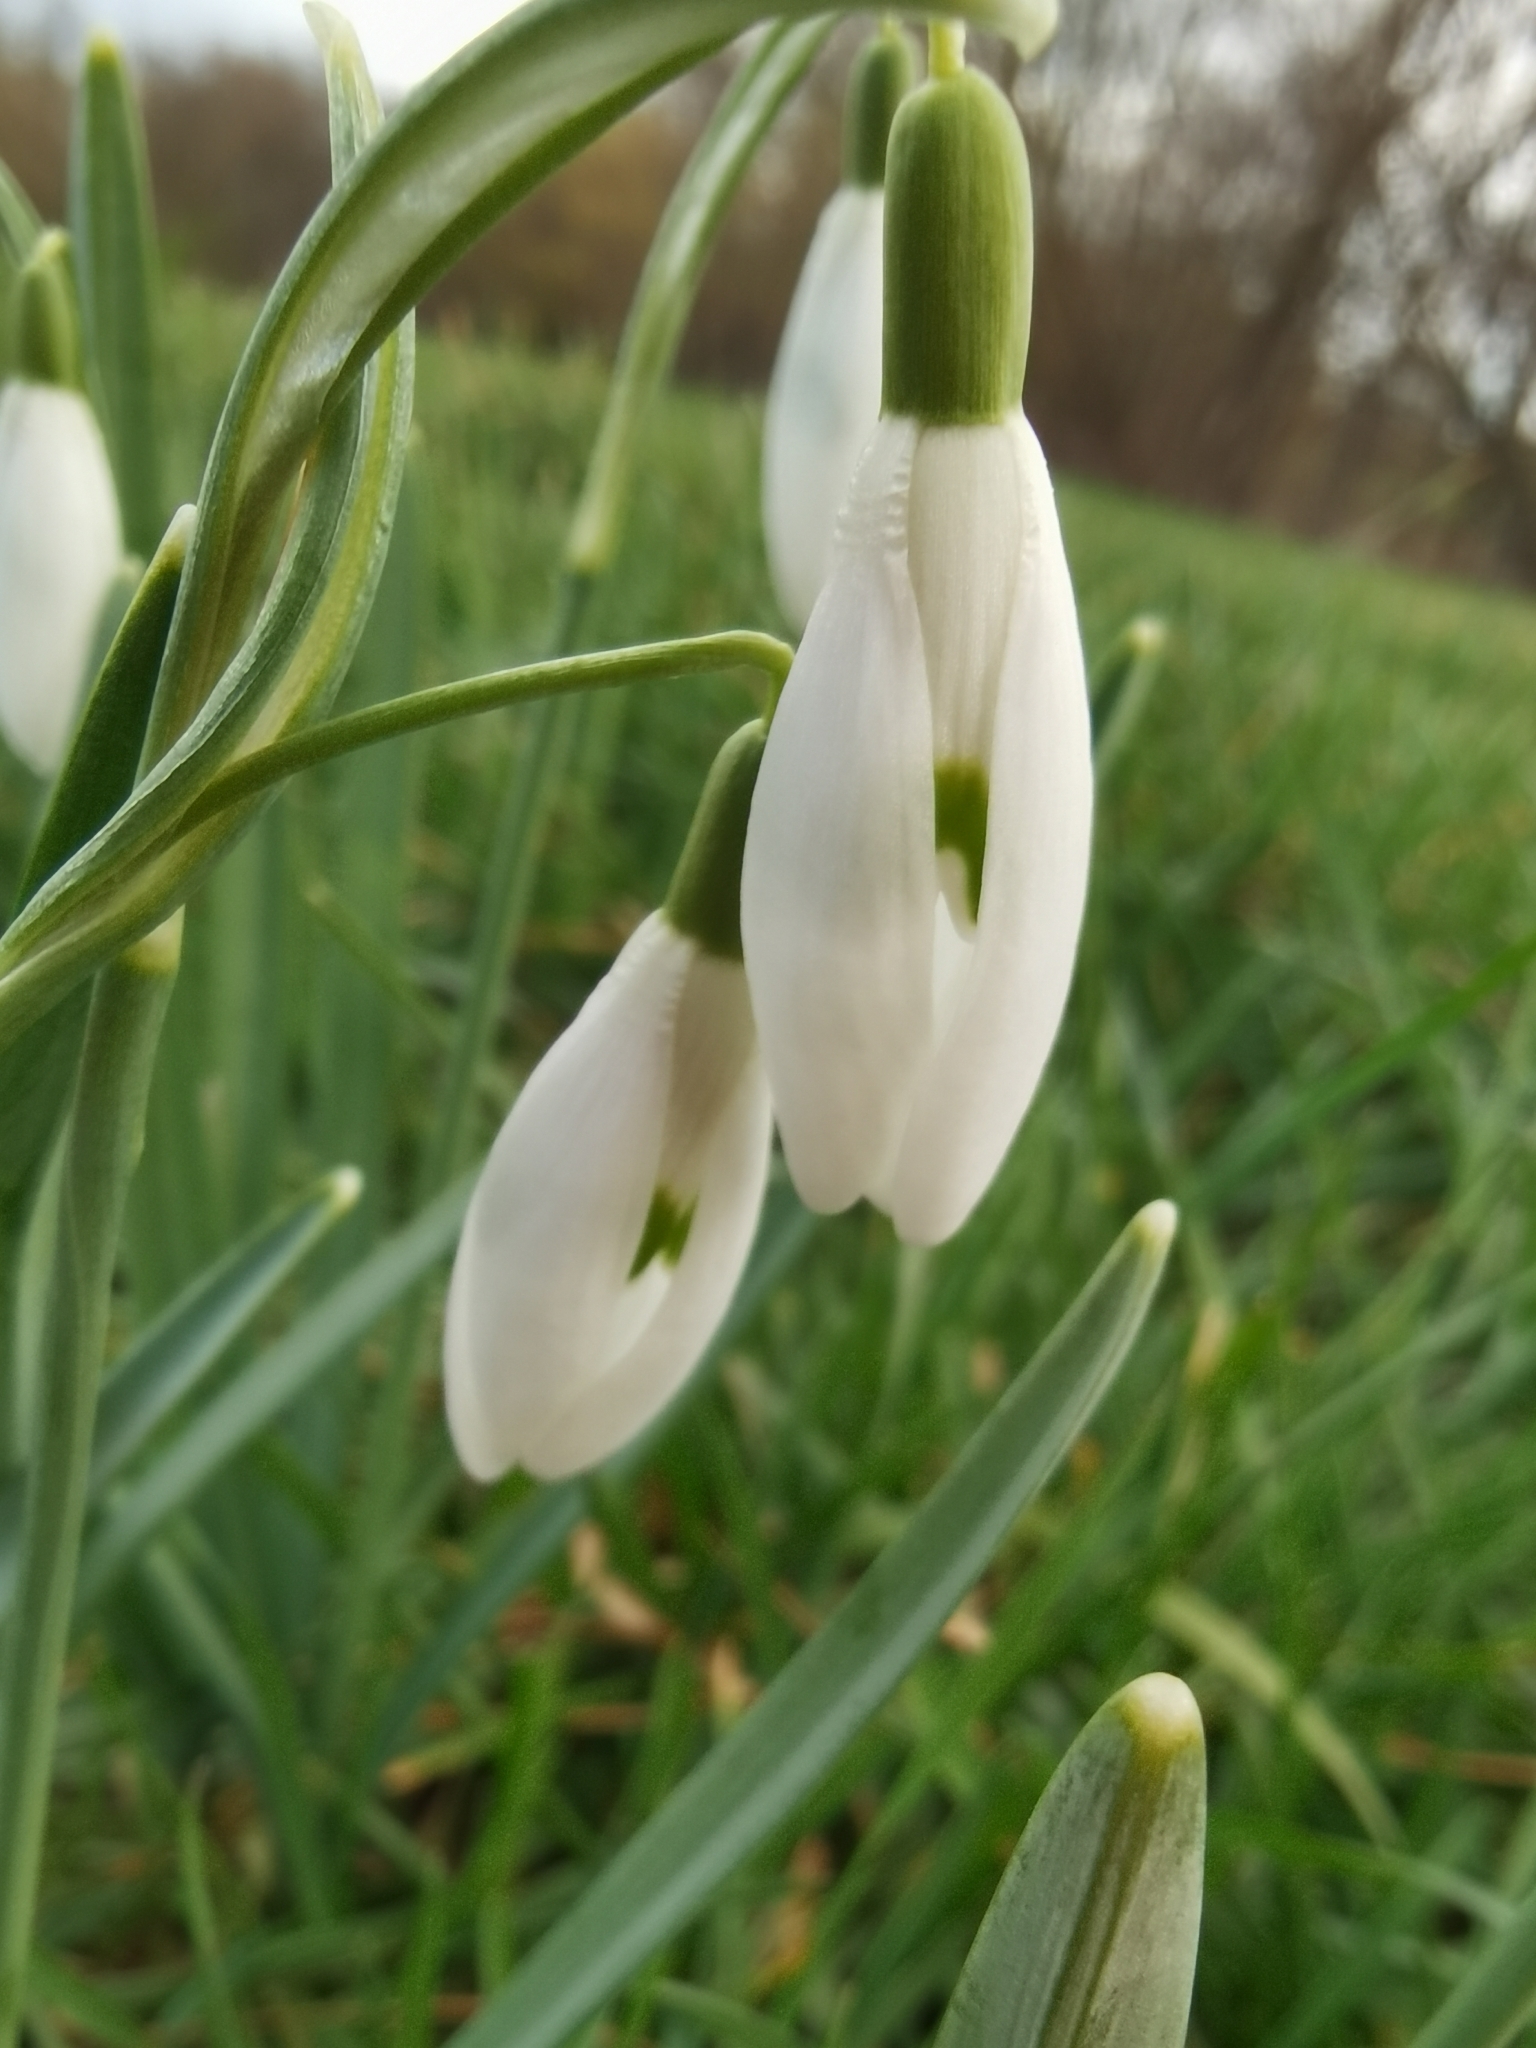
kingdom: Plantae
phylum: Tracheophyta
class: Liliopsida
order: Asparagales
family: Amaryllidaceae
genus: Galanthus
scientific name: Galanthus nivalis
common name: Snowdrop
